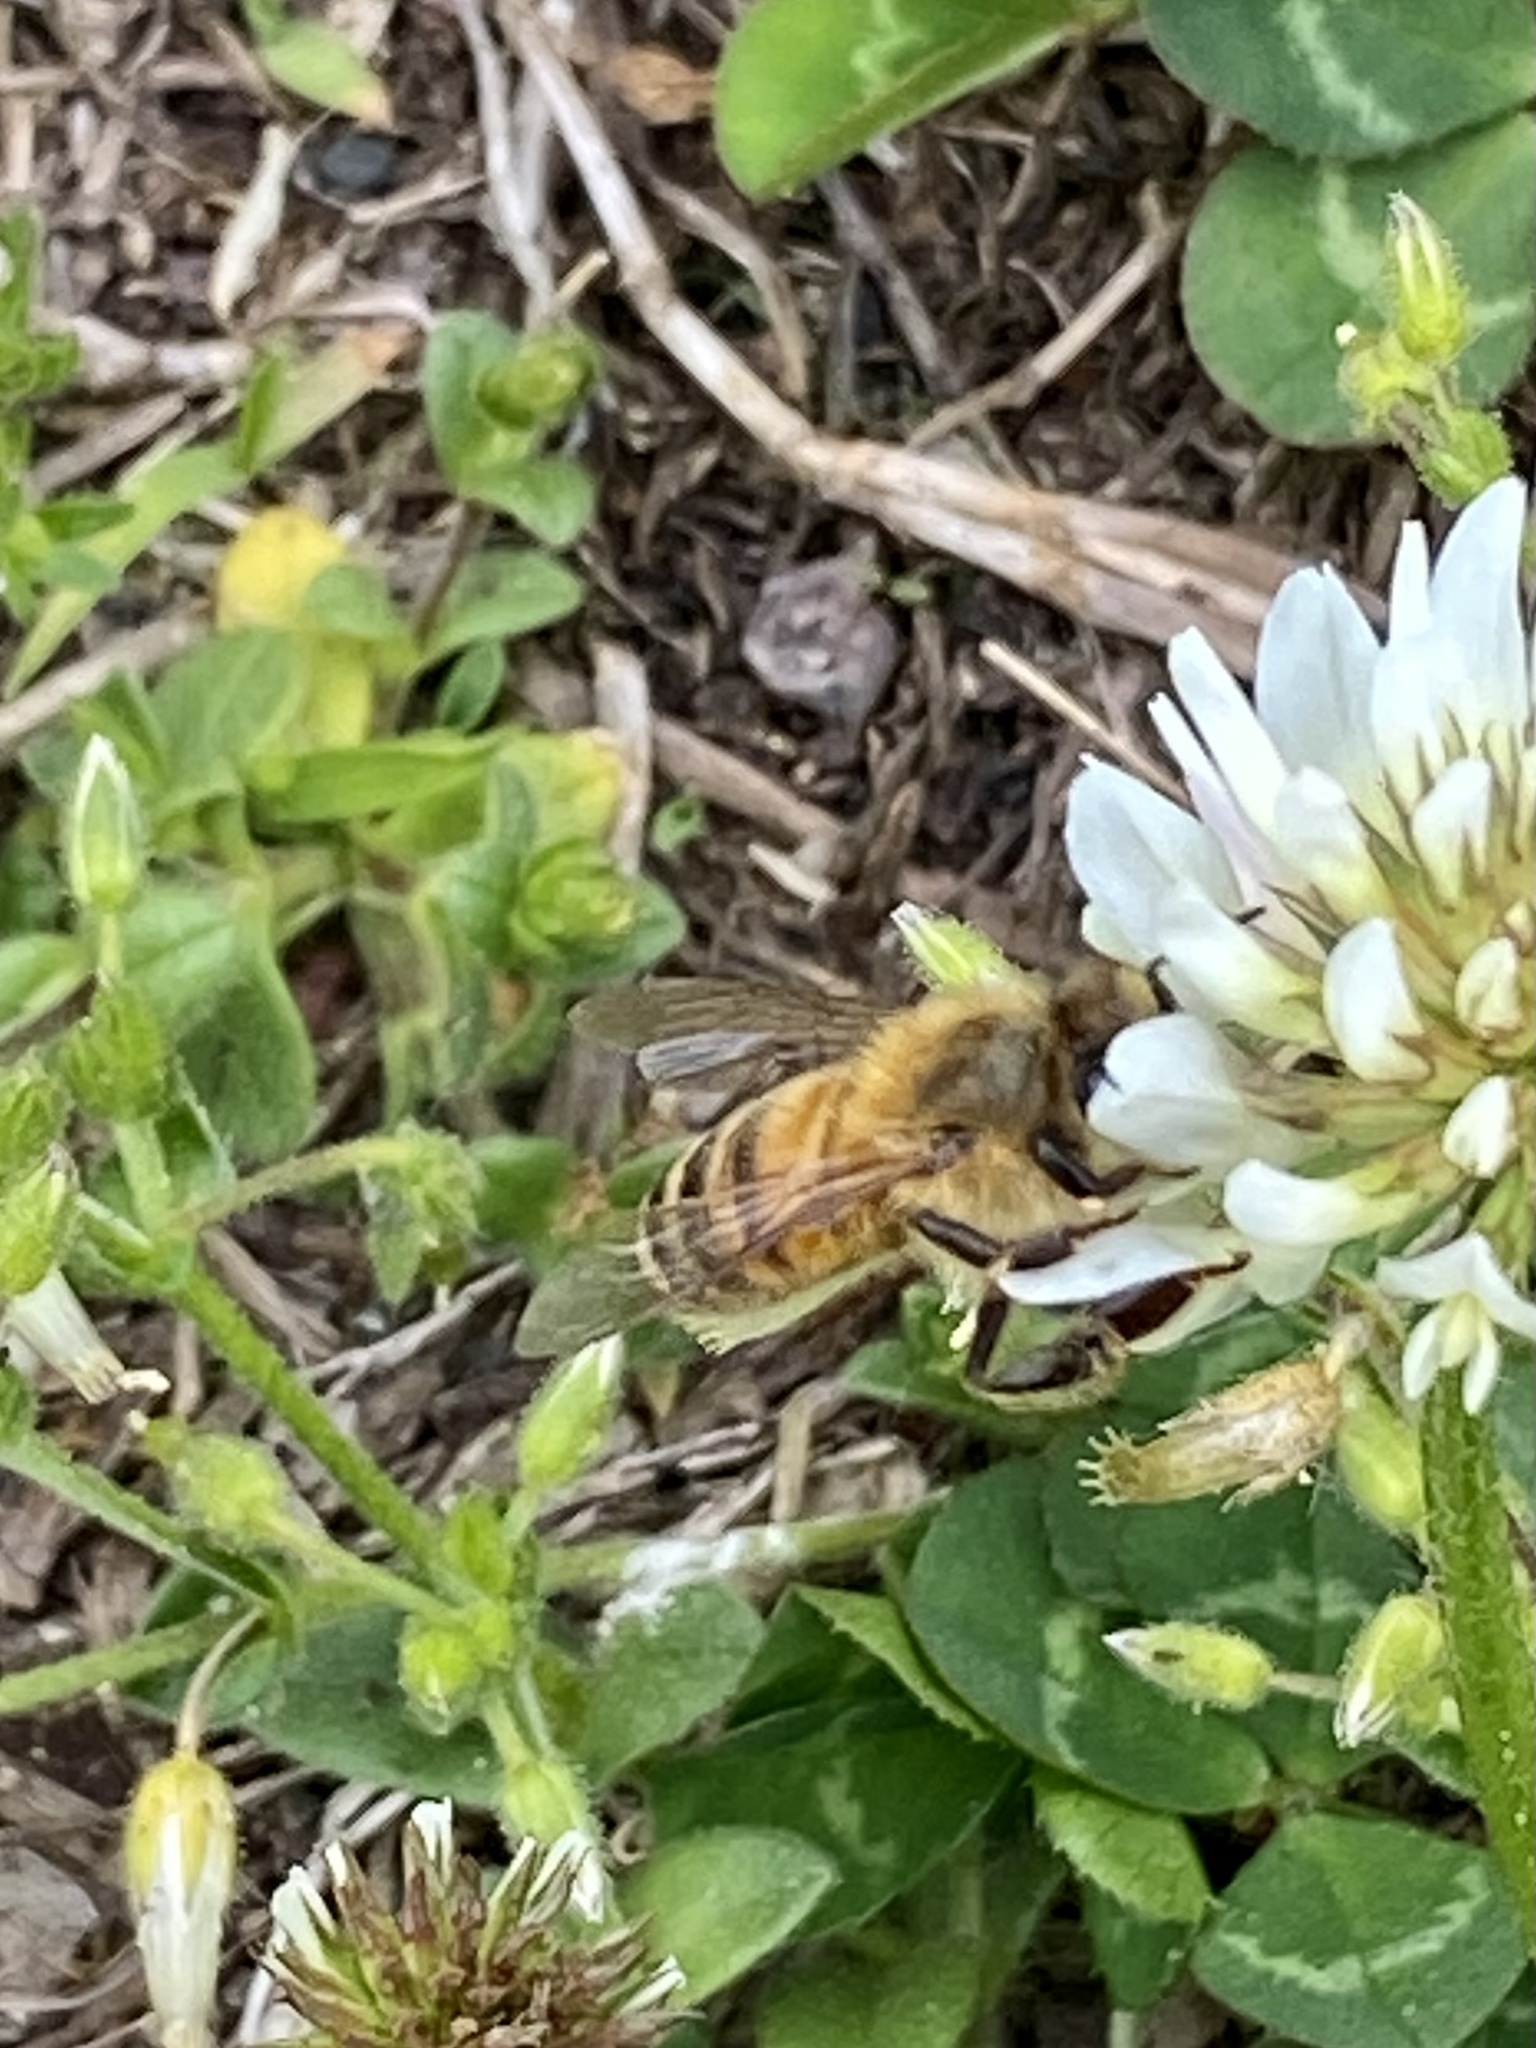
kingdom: Animalia
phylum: Arthropoda
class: Insecta
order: Hymenoptera
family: Apidae
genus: Apis
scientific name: Apis mellifera
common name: Honey bee
